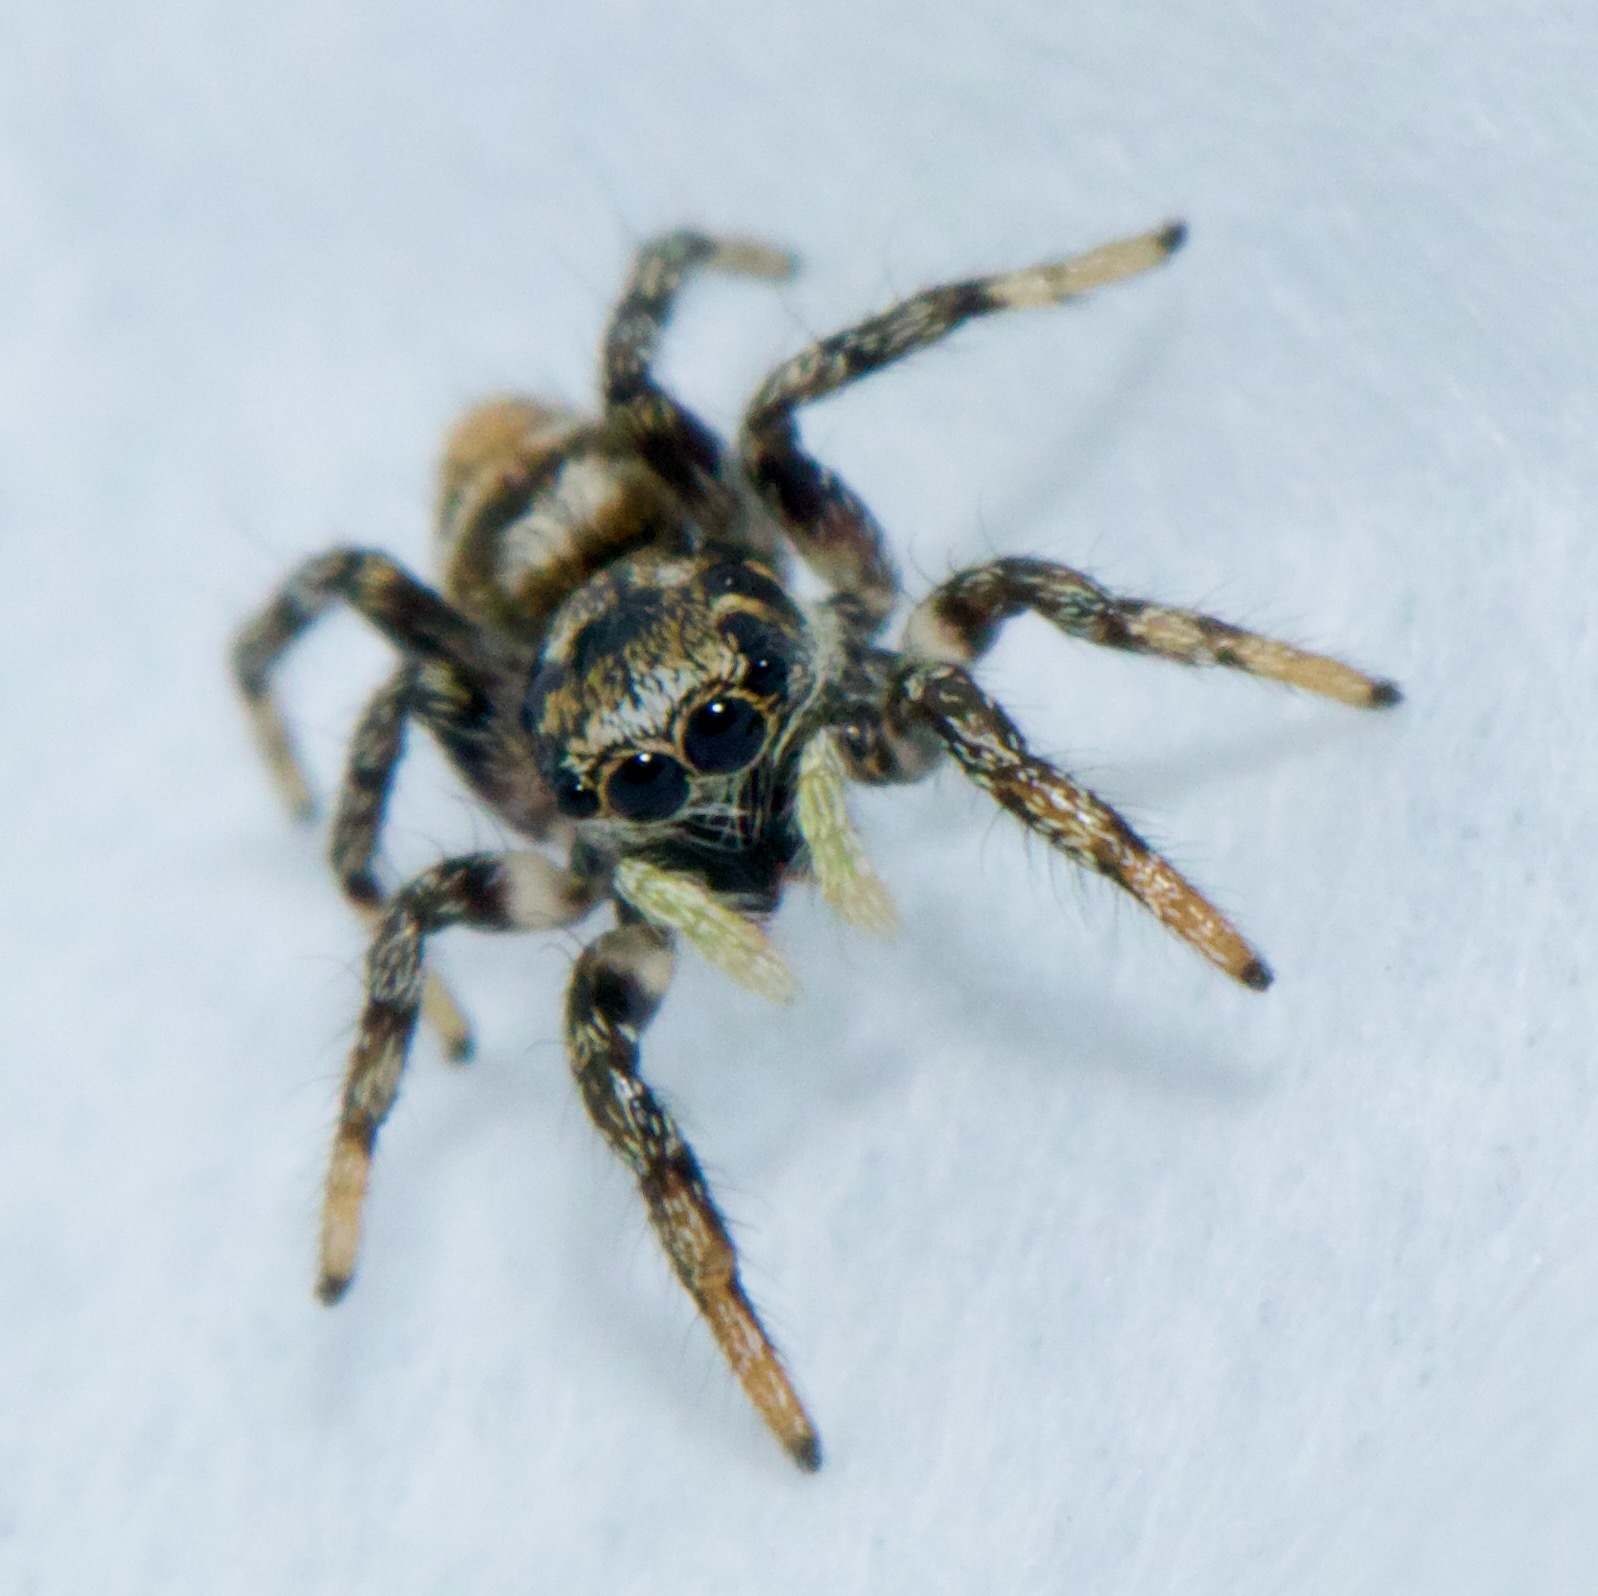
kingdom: Animalia
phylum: Arthropoda
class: Arachnida
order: Araneae
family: Salticidae
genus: Salticus
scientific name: Salticus scenicus
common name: Zebra jumper
